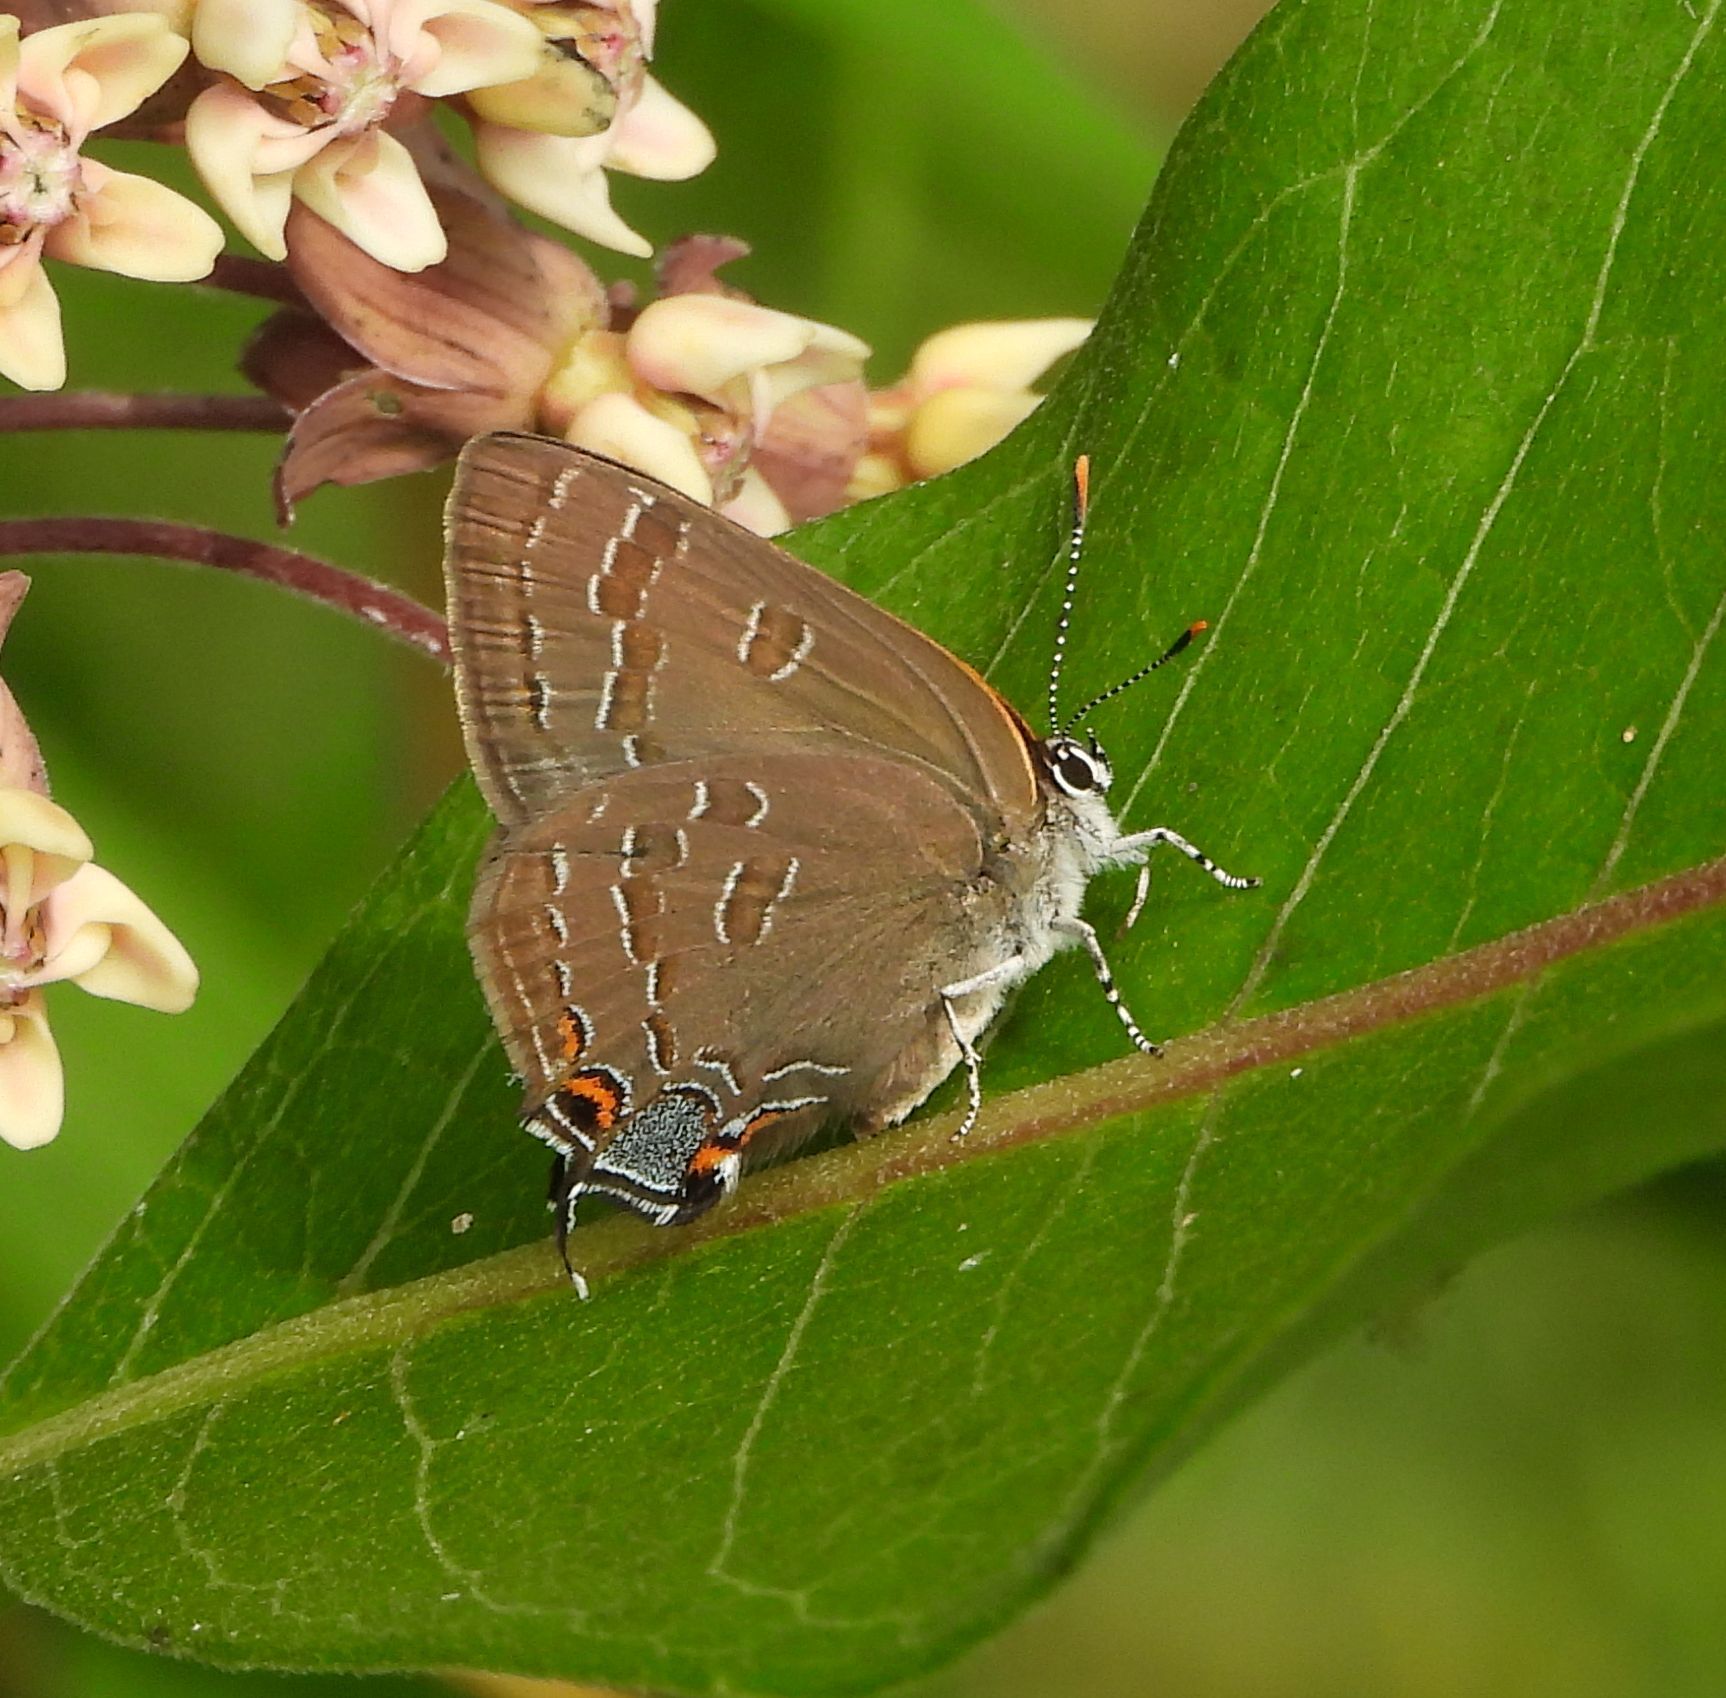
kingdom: Animalia
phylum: Arthropoda
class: Insecta
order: Lepidoptera
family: Lycaenidae
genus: Strymon
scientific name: Strymon caryaevorus
